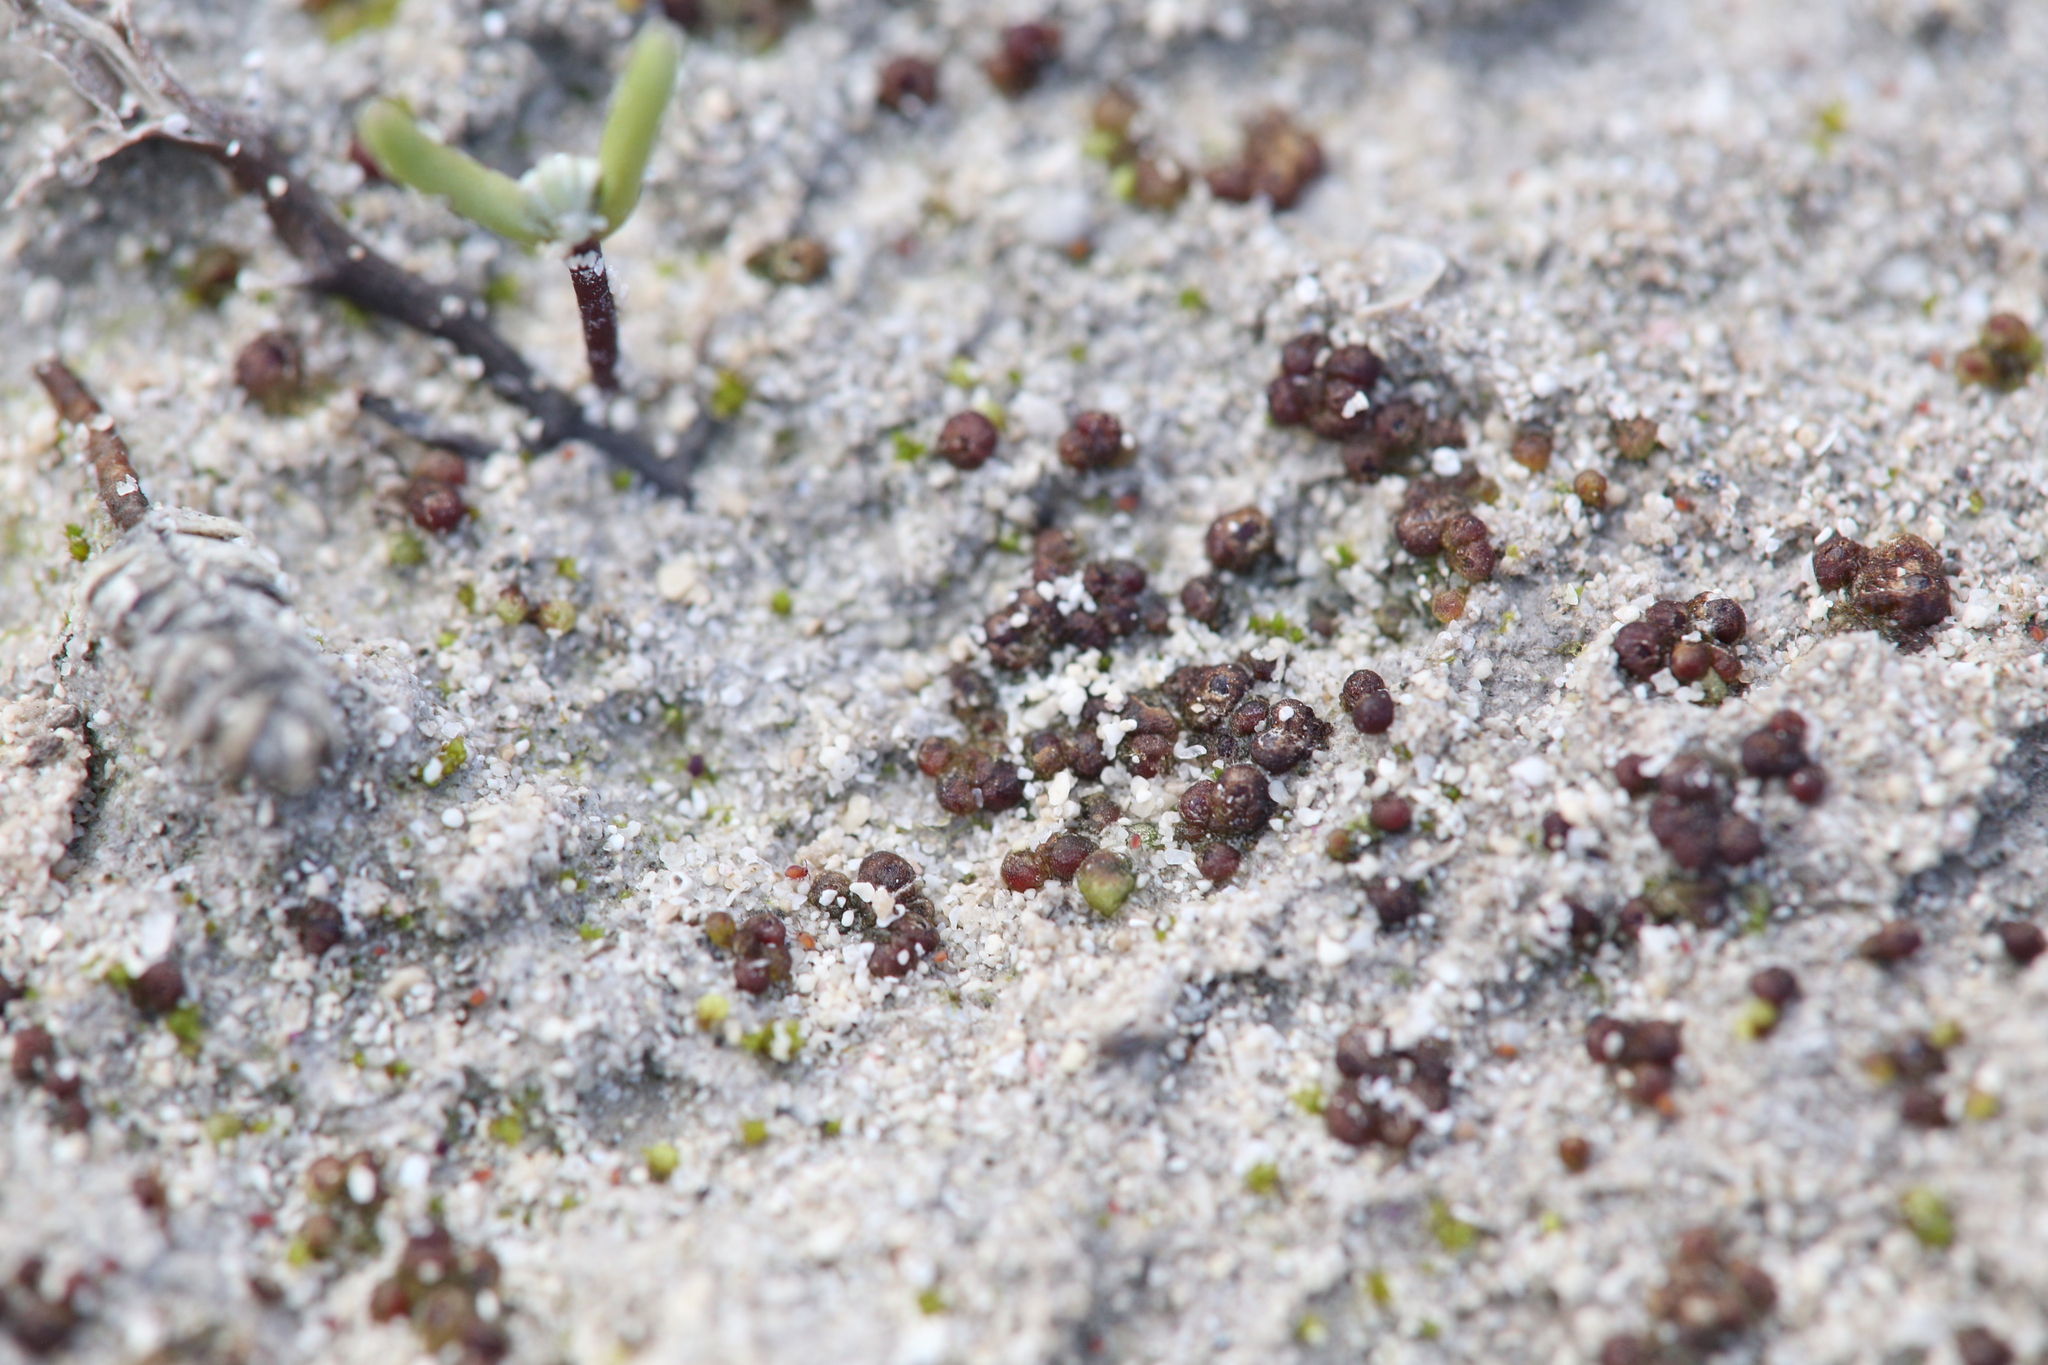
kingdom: Plantae
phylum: Marchantiophyta
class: Marchantiopsida
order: Sphaerocarpales
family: Monocarpaceae
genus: Monocarpus
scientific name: Monocarpus sphaerocarpus
